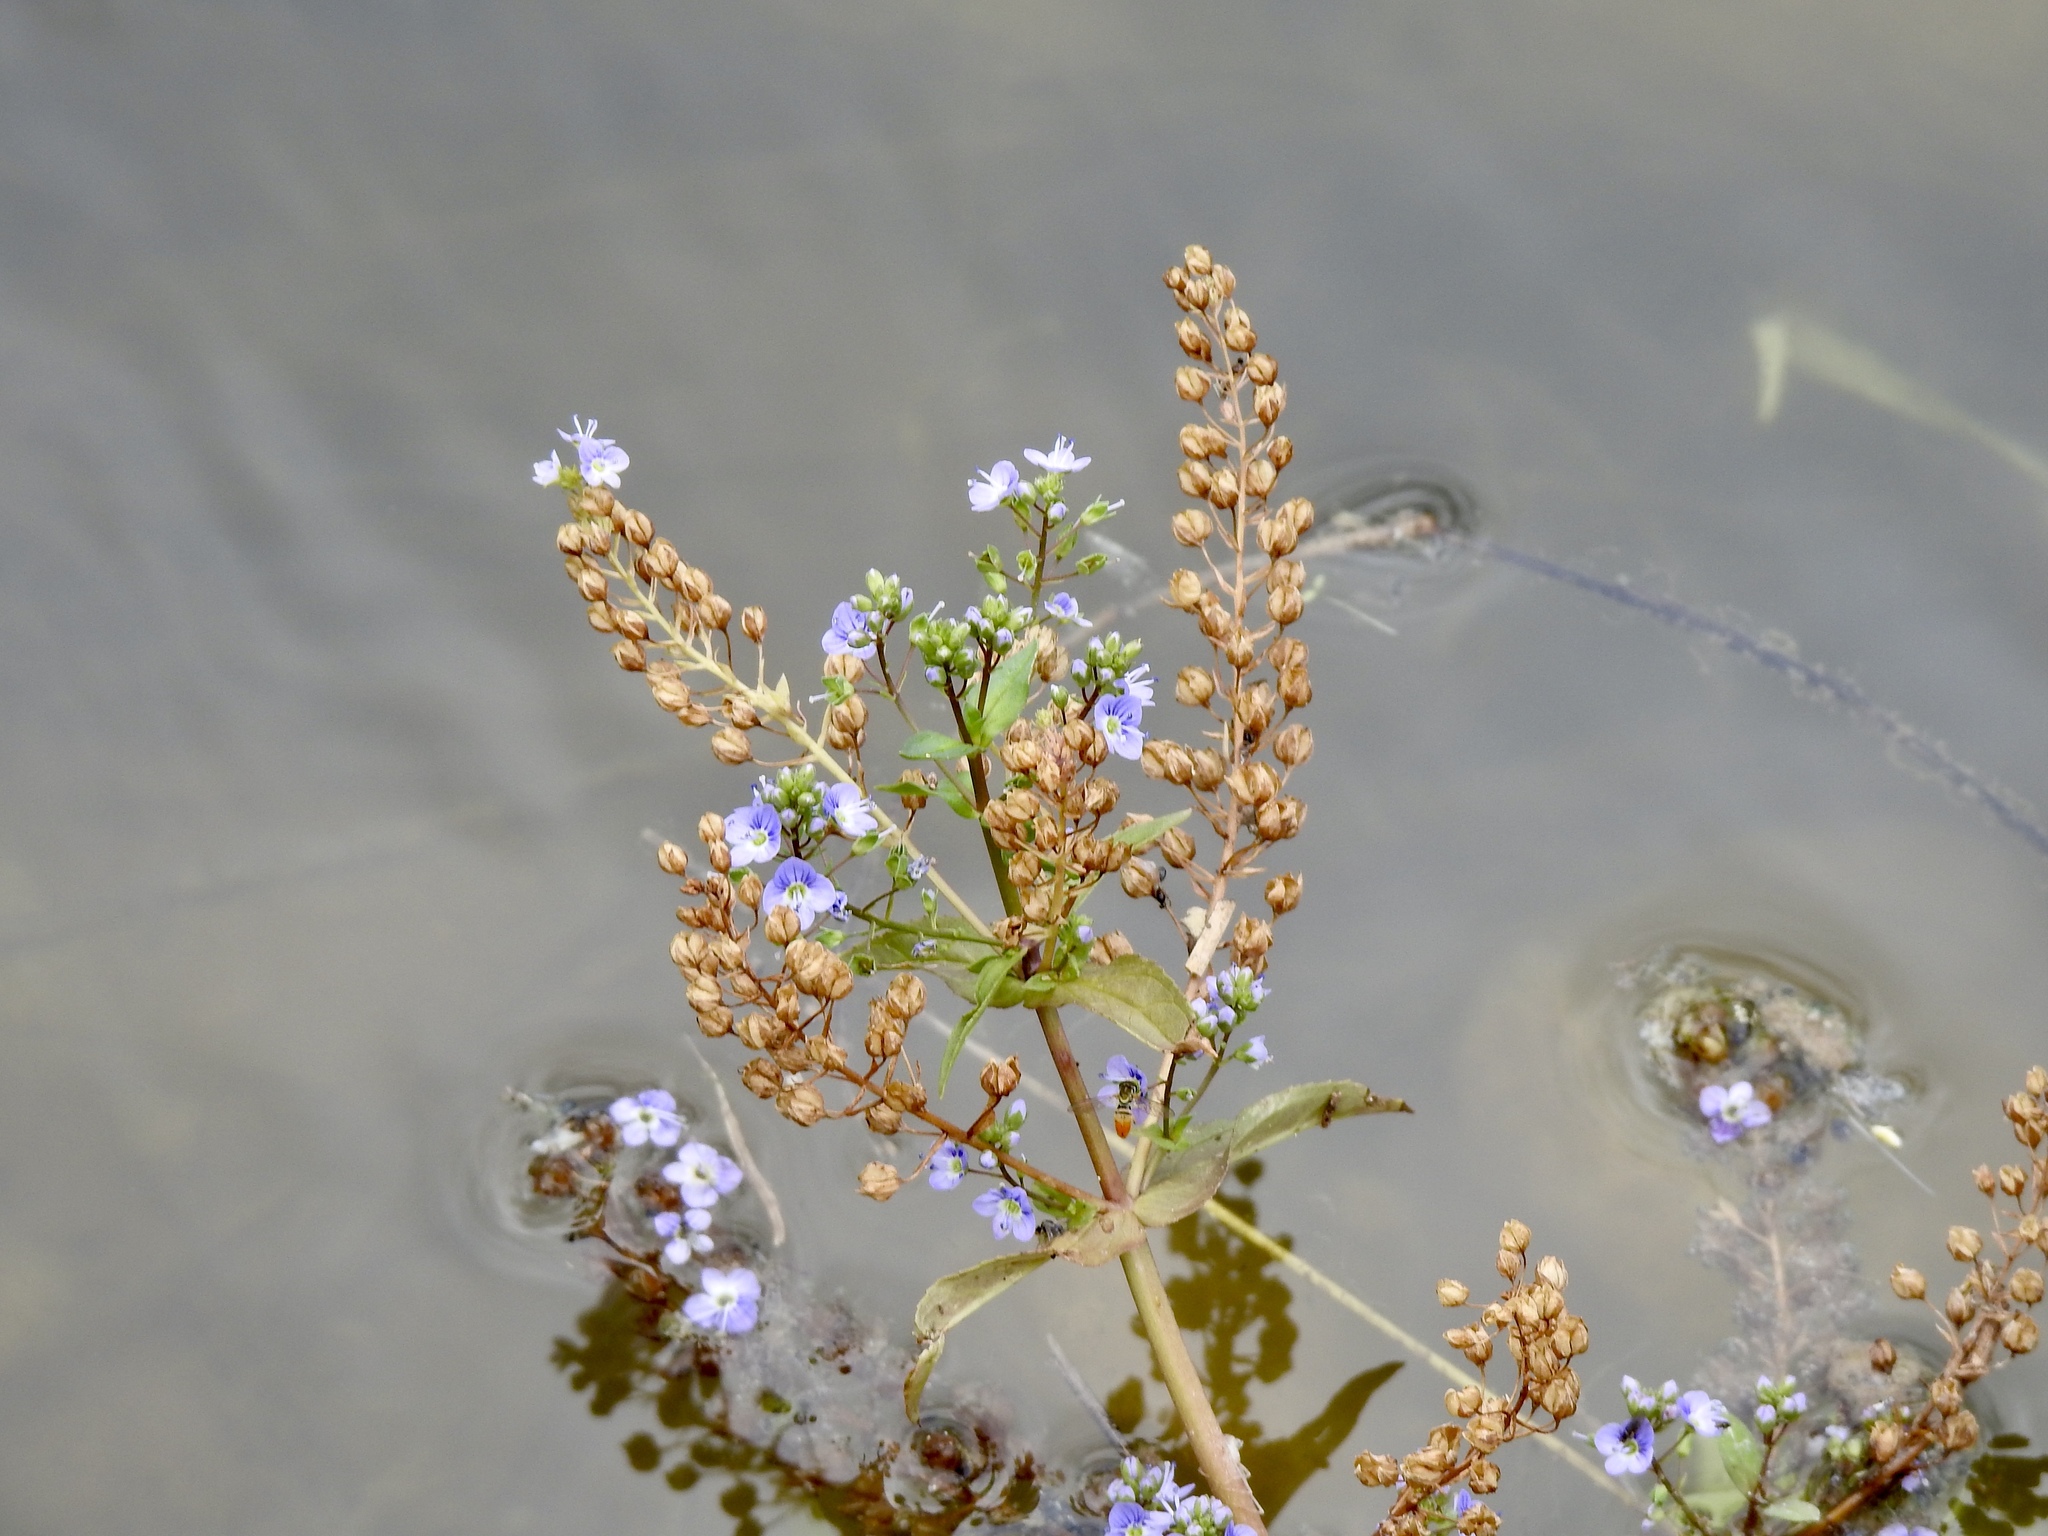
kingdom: Plantae
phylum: Tracheophyta
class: Magnoliopsida
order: Lamiales
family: Plantaginaceae
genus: Veronica
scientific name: Veronica anagallis-aquatica
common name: Water speedwell
